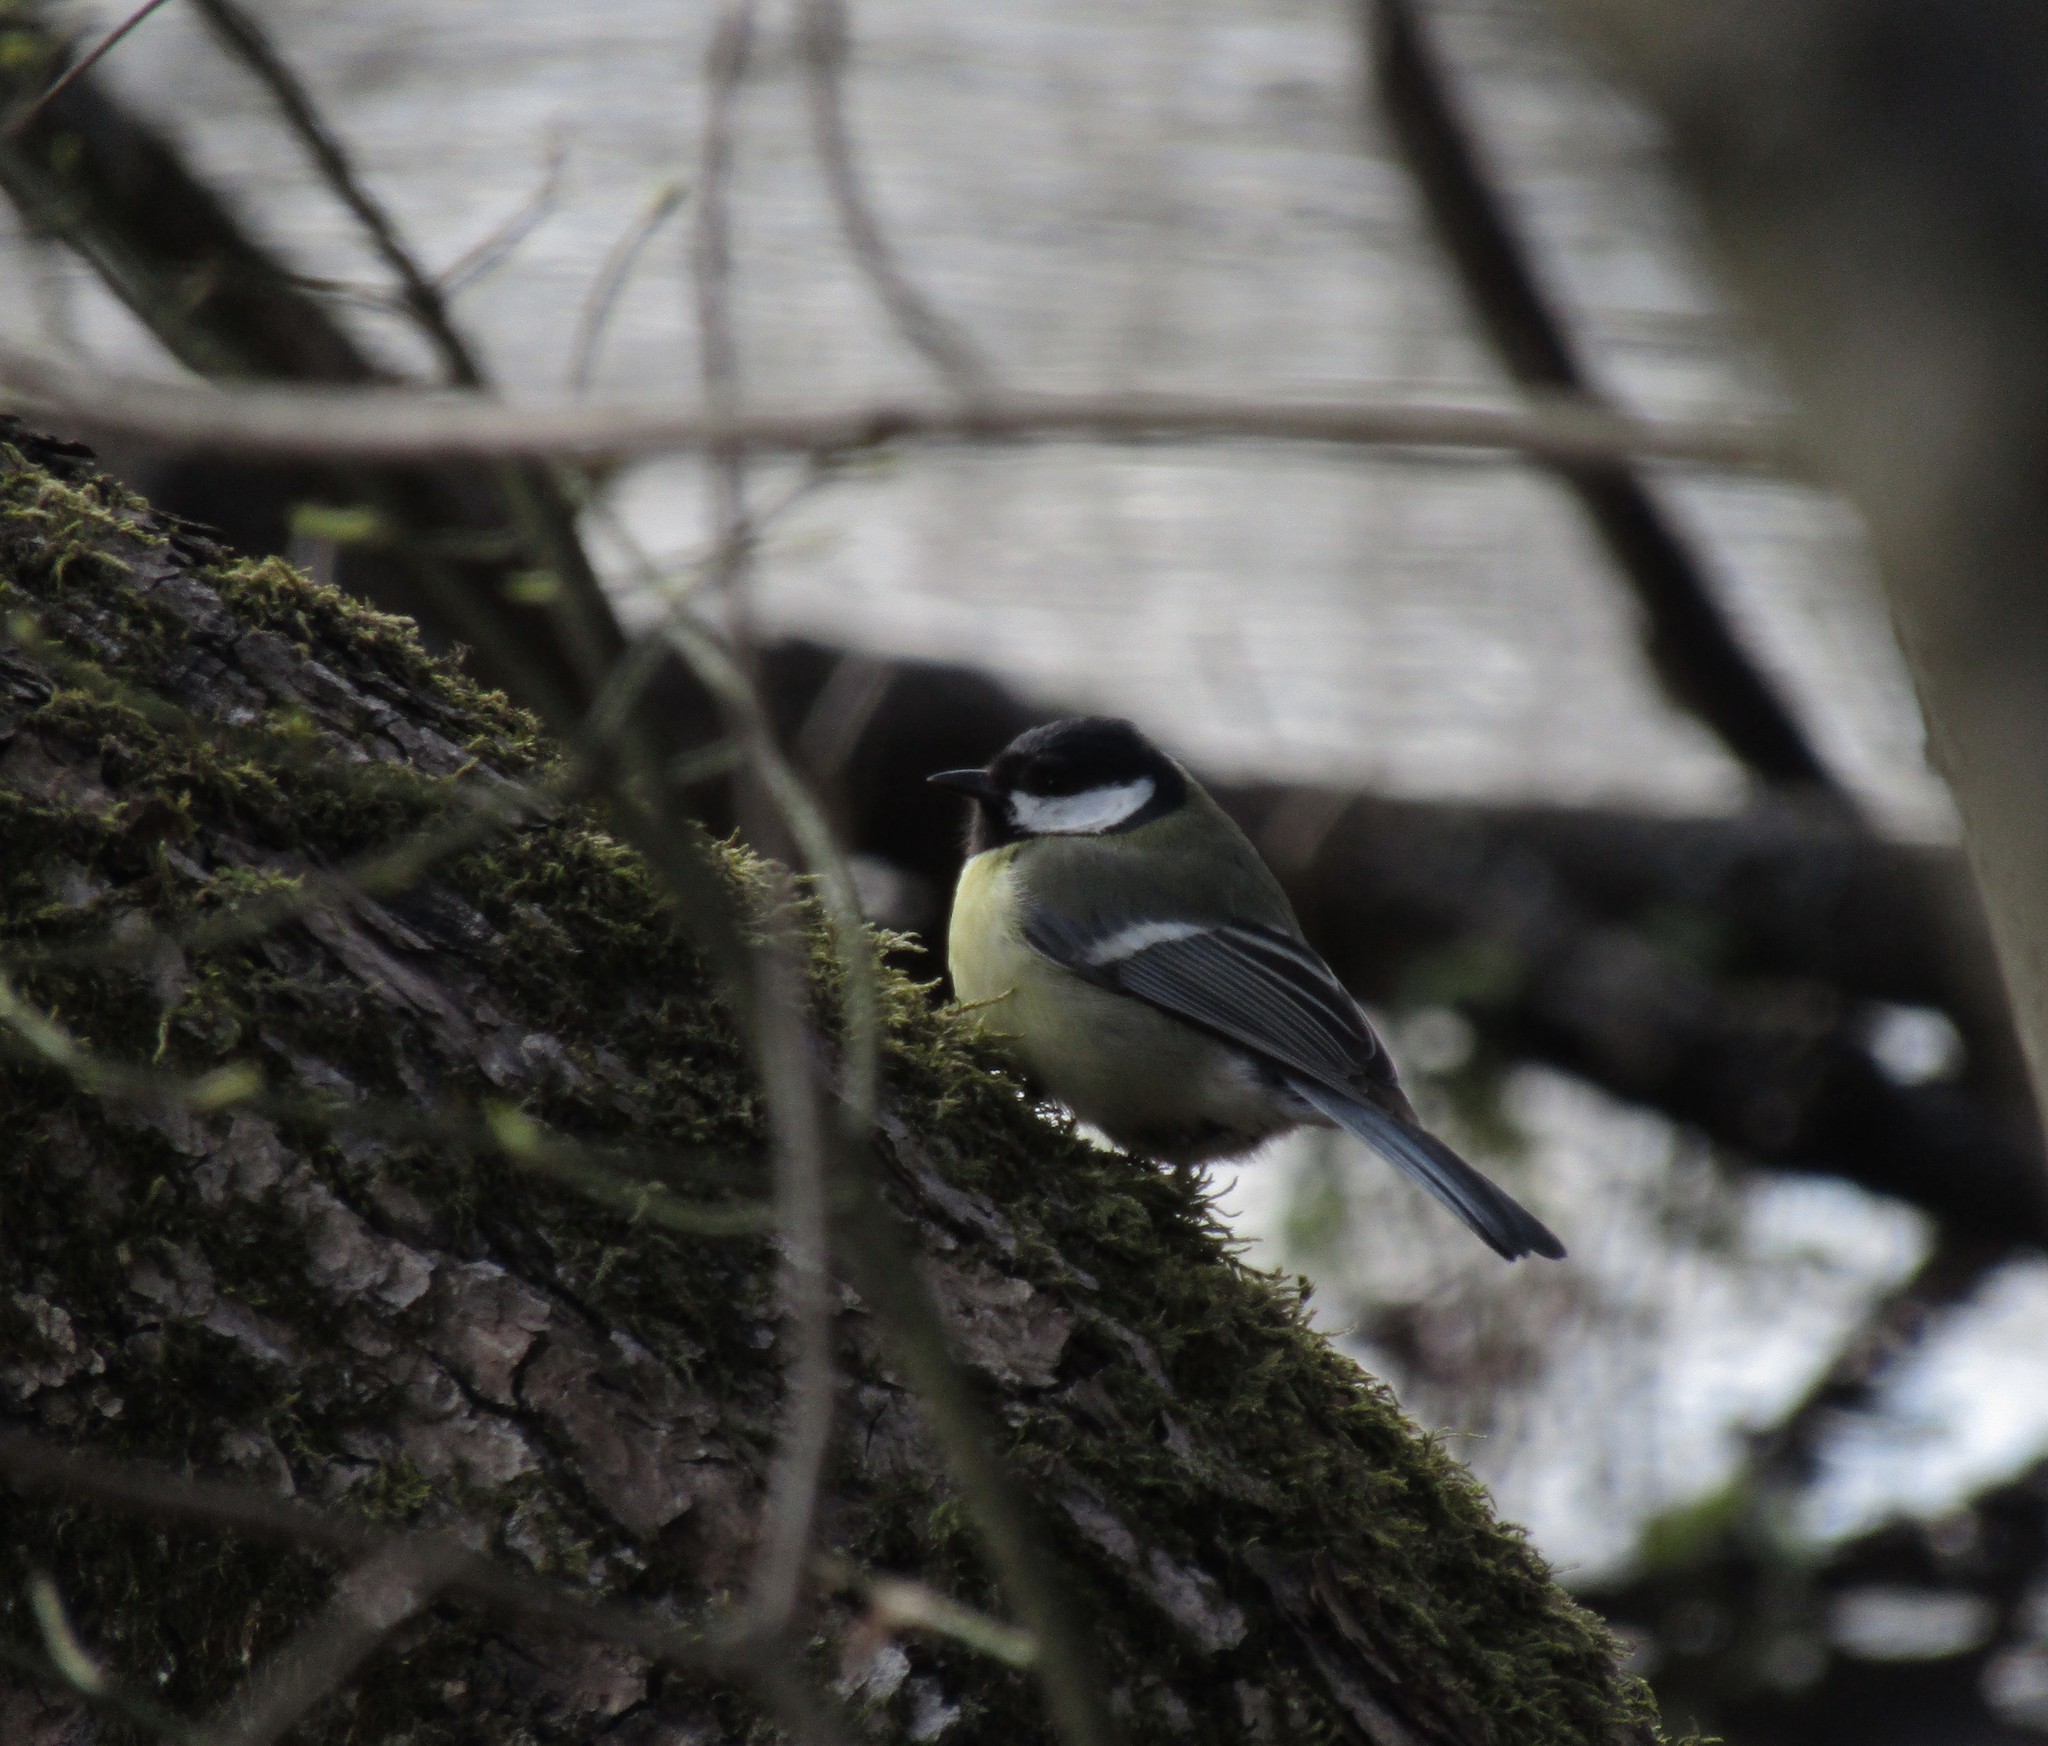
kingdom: Animalia
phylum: Chordata
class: Aves
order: Passeriformes
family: Paridae
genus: Parus
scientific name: Parus major
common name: Great tit
